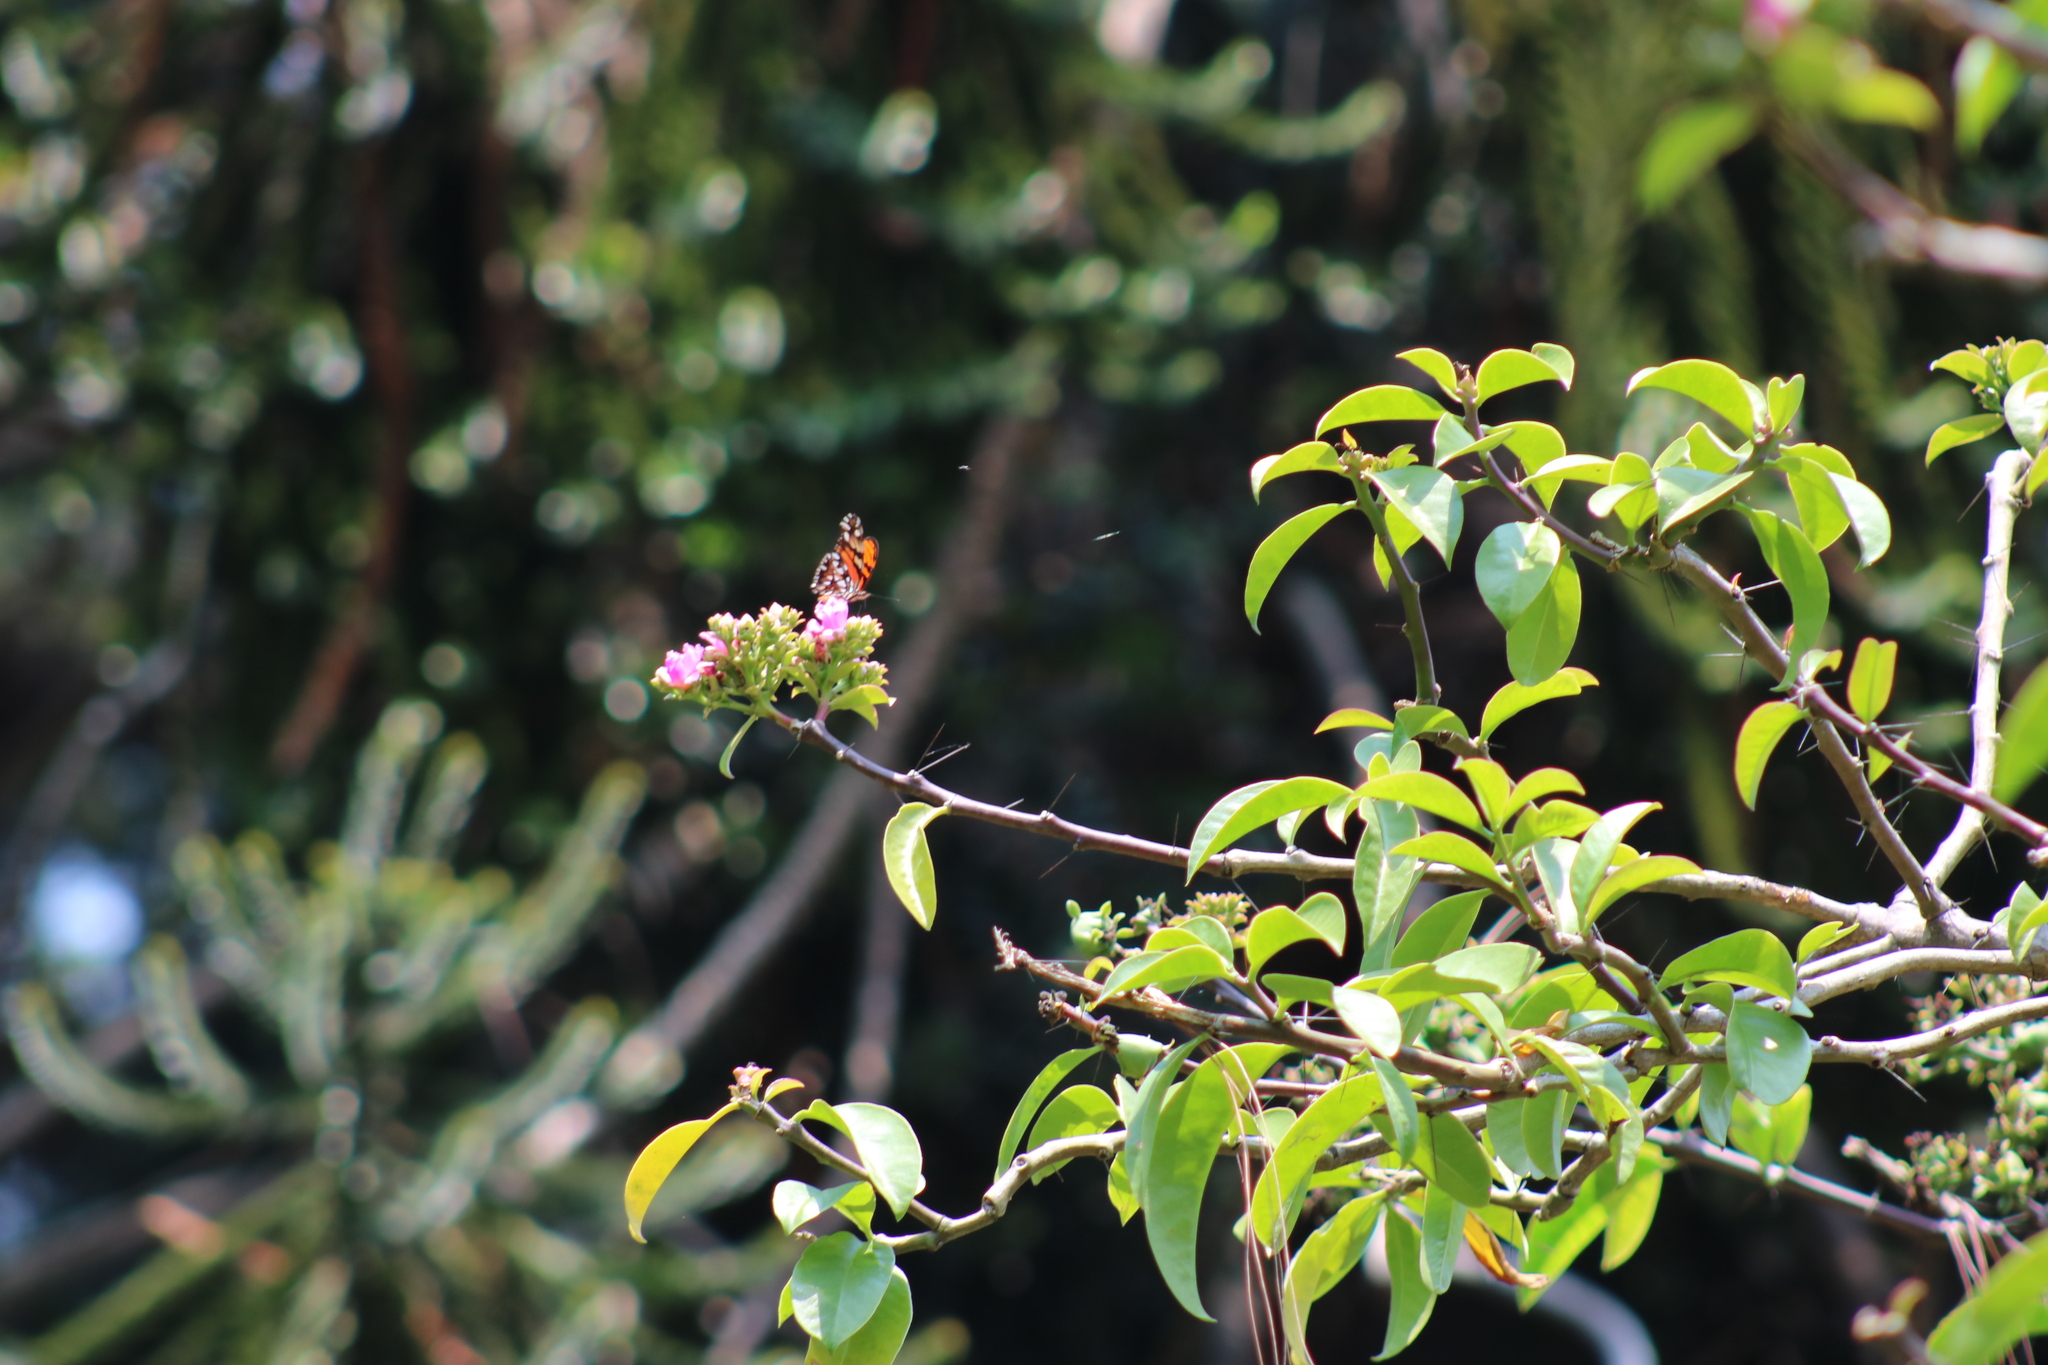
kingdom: Animalia
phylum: Arthropoda
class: Insecta
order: Lepidoptera
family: Nymphalidae
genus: Dione
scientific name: Dione juno
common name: Juno silverspot
